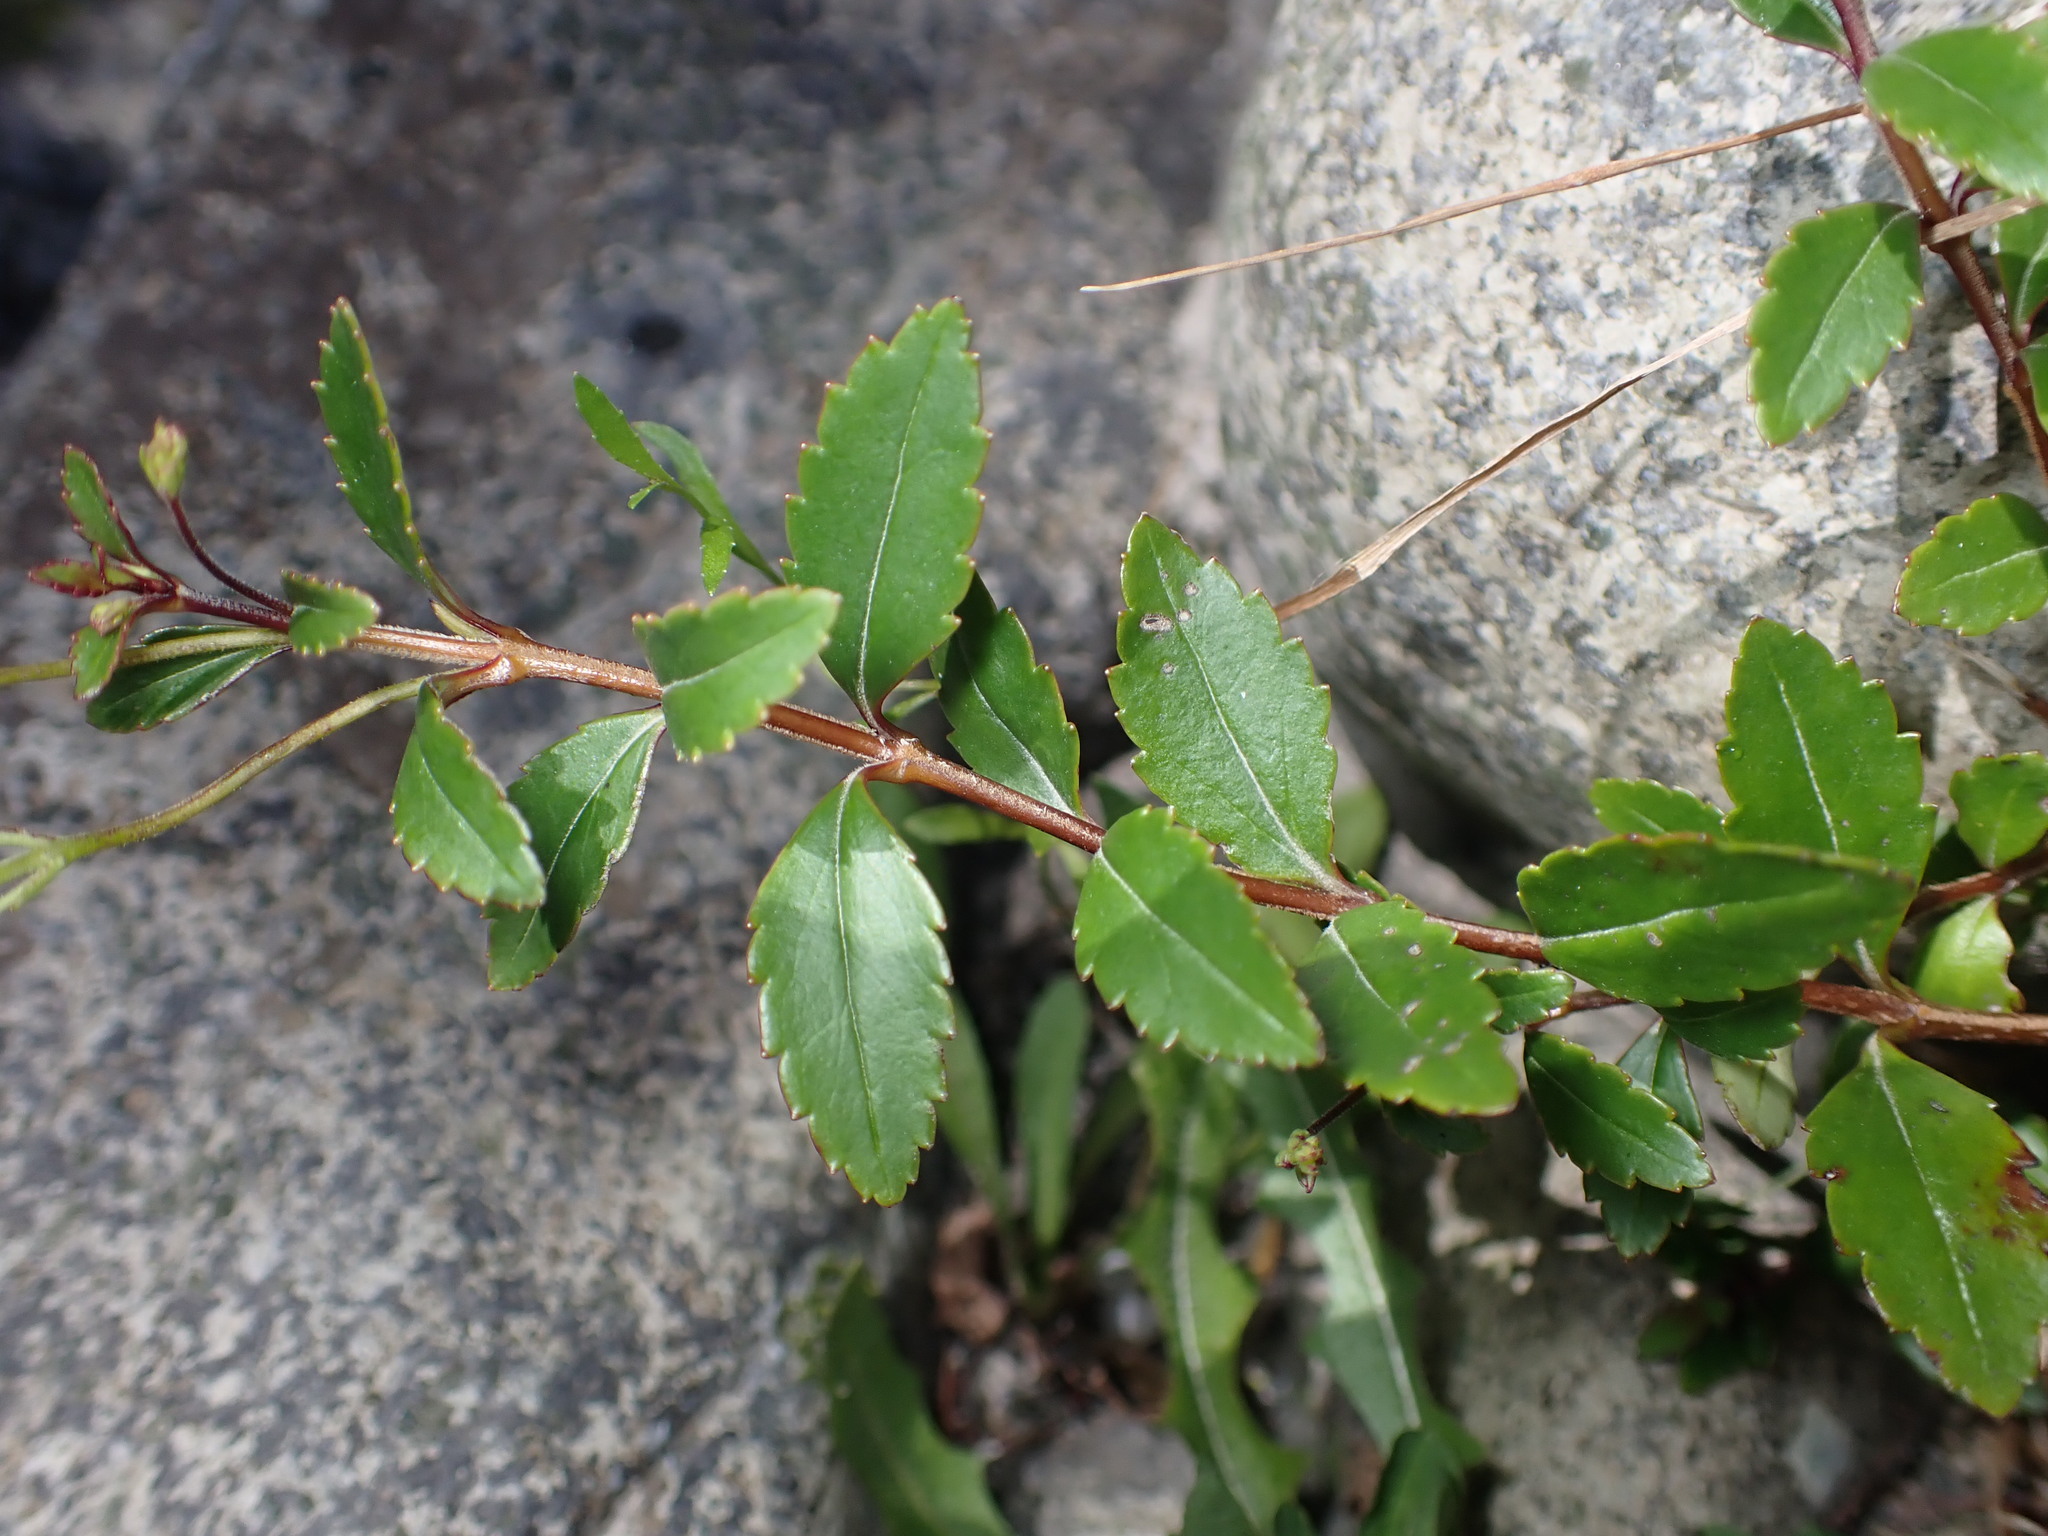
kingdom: Plantae
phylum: Tracheophyta
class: Magnoliopsida
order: Lamiales
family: Plantaginaceae
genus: Veronica
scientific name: Veronica lanceolata
